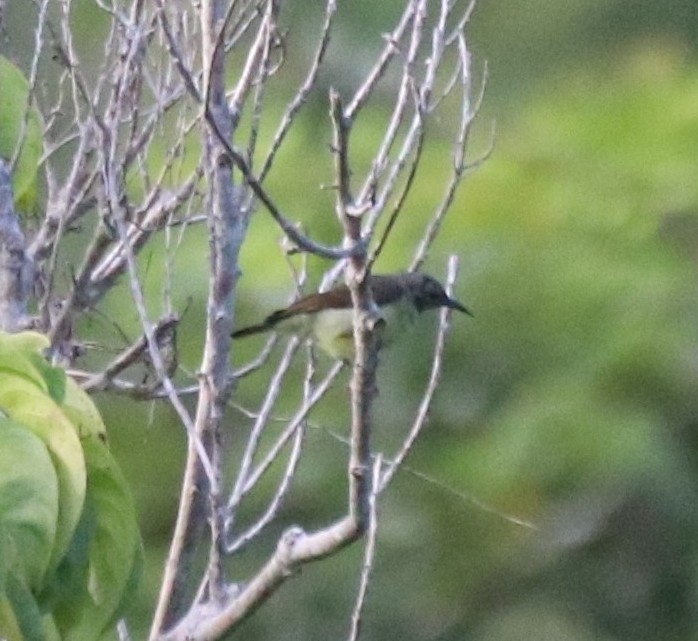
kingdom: Animalia
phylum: Chordata
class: Aves
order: Passeriformes
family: Nectariniidae
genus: Anthreptes
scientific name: Anthreptes malacensis
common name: Brown-throated sunbird
